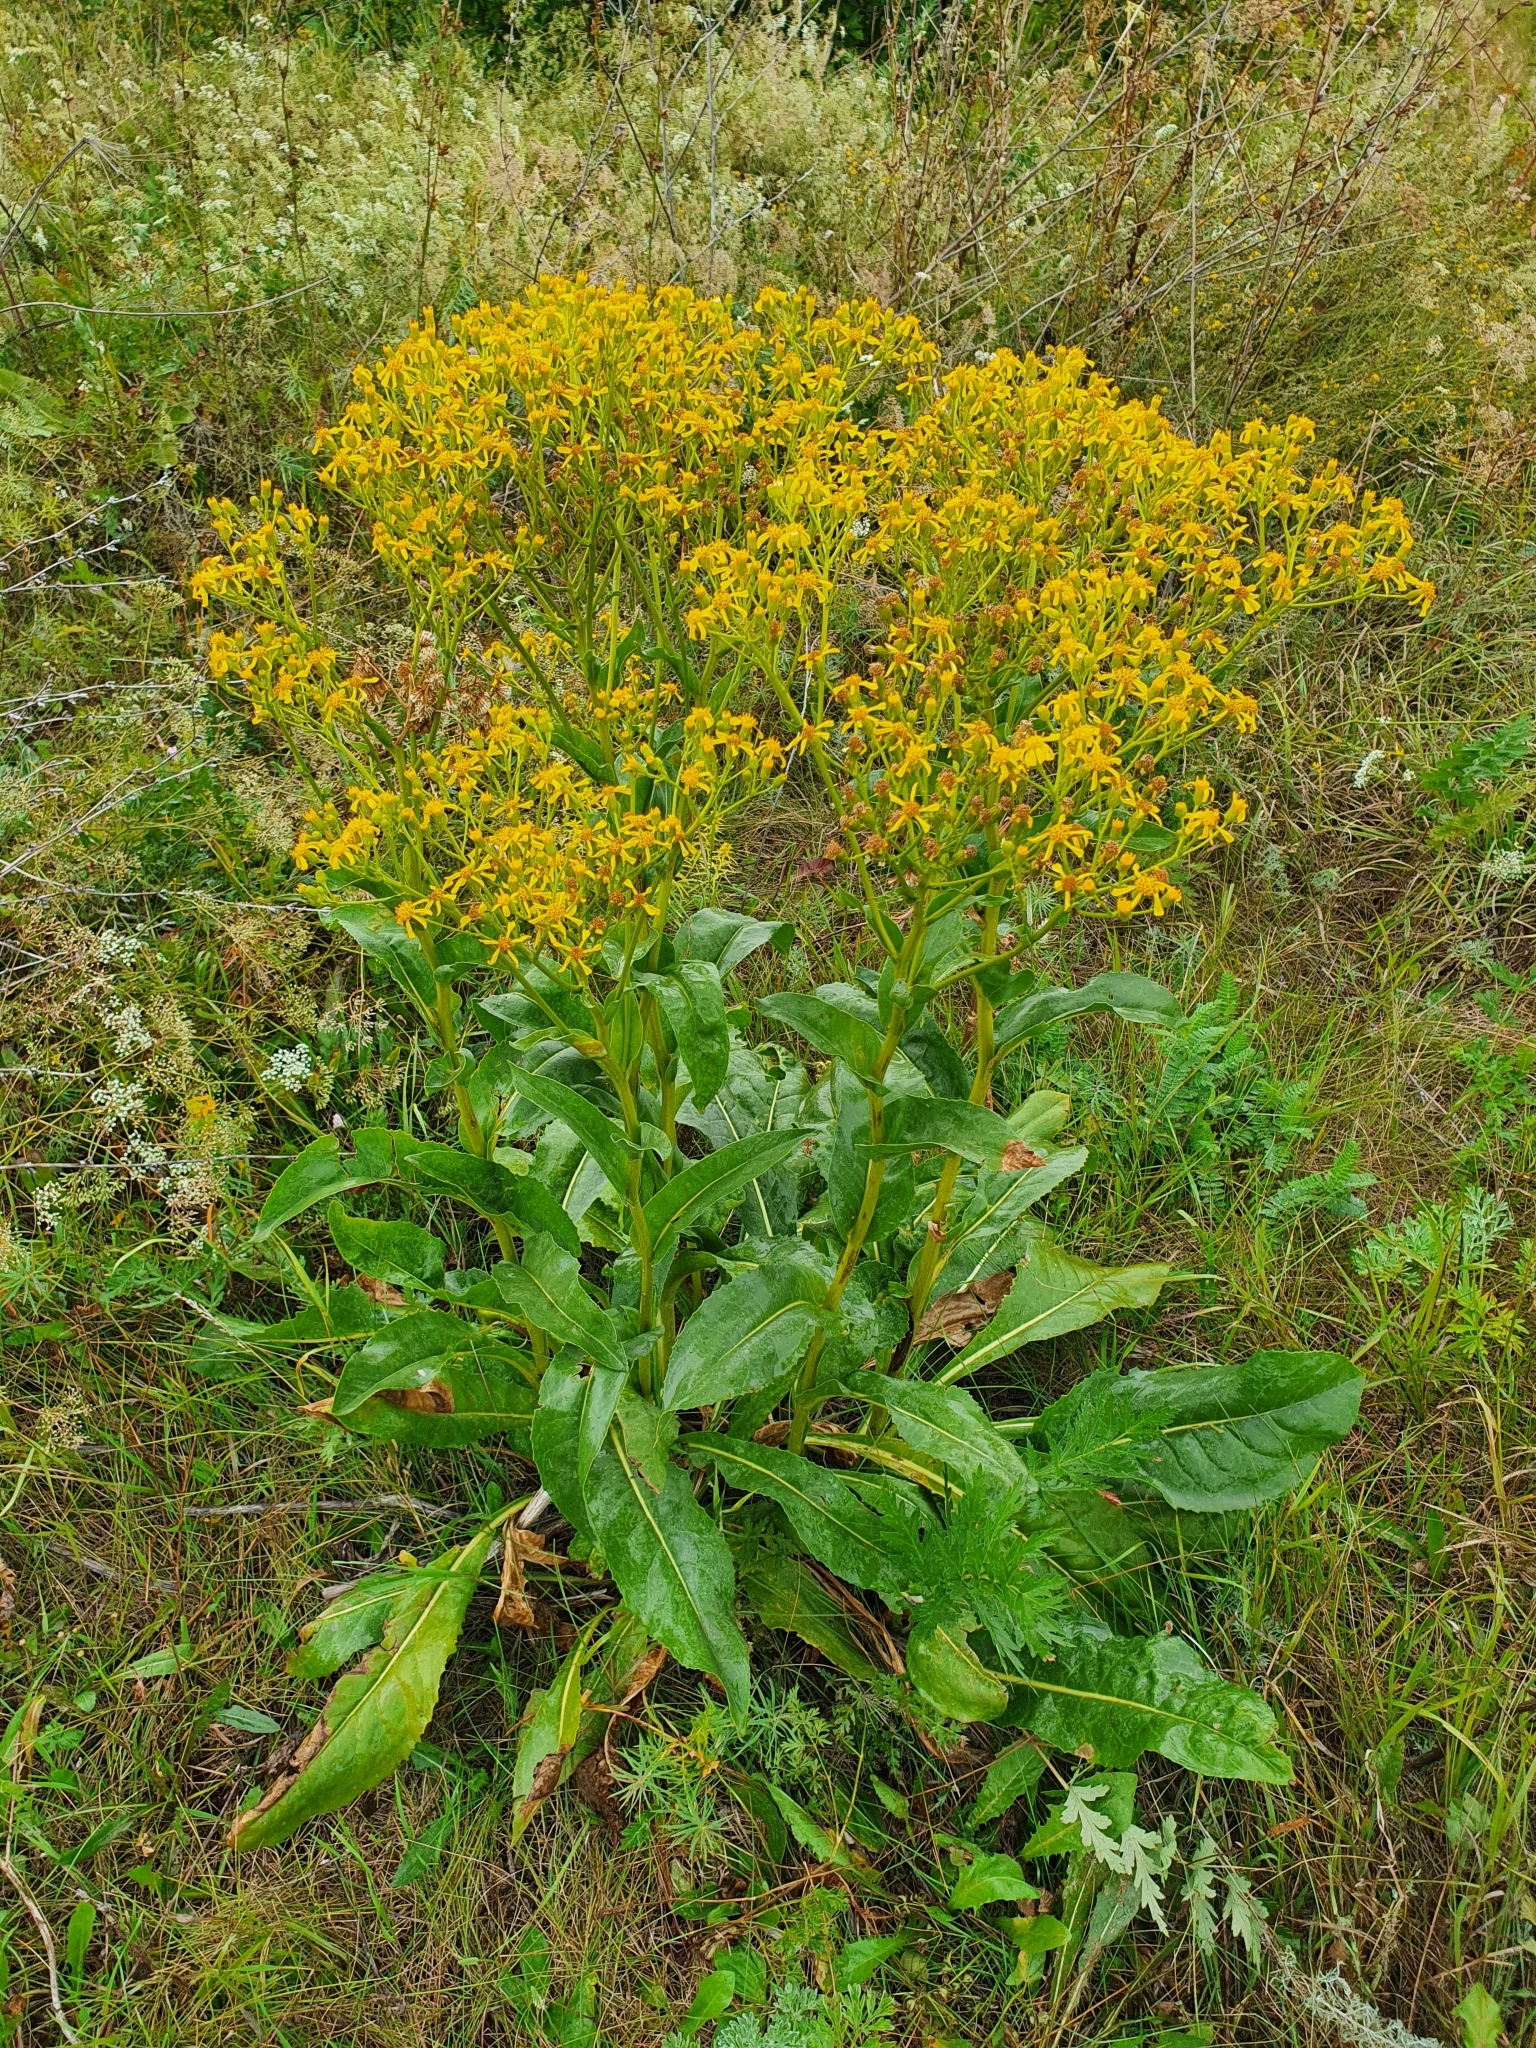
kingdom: Plantae
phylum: Tracheophyta
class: Magnoliopsida
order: Asterales
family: Asteraceae
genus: Senecio
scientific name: Senecio doria
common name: Golden ragwort
